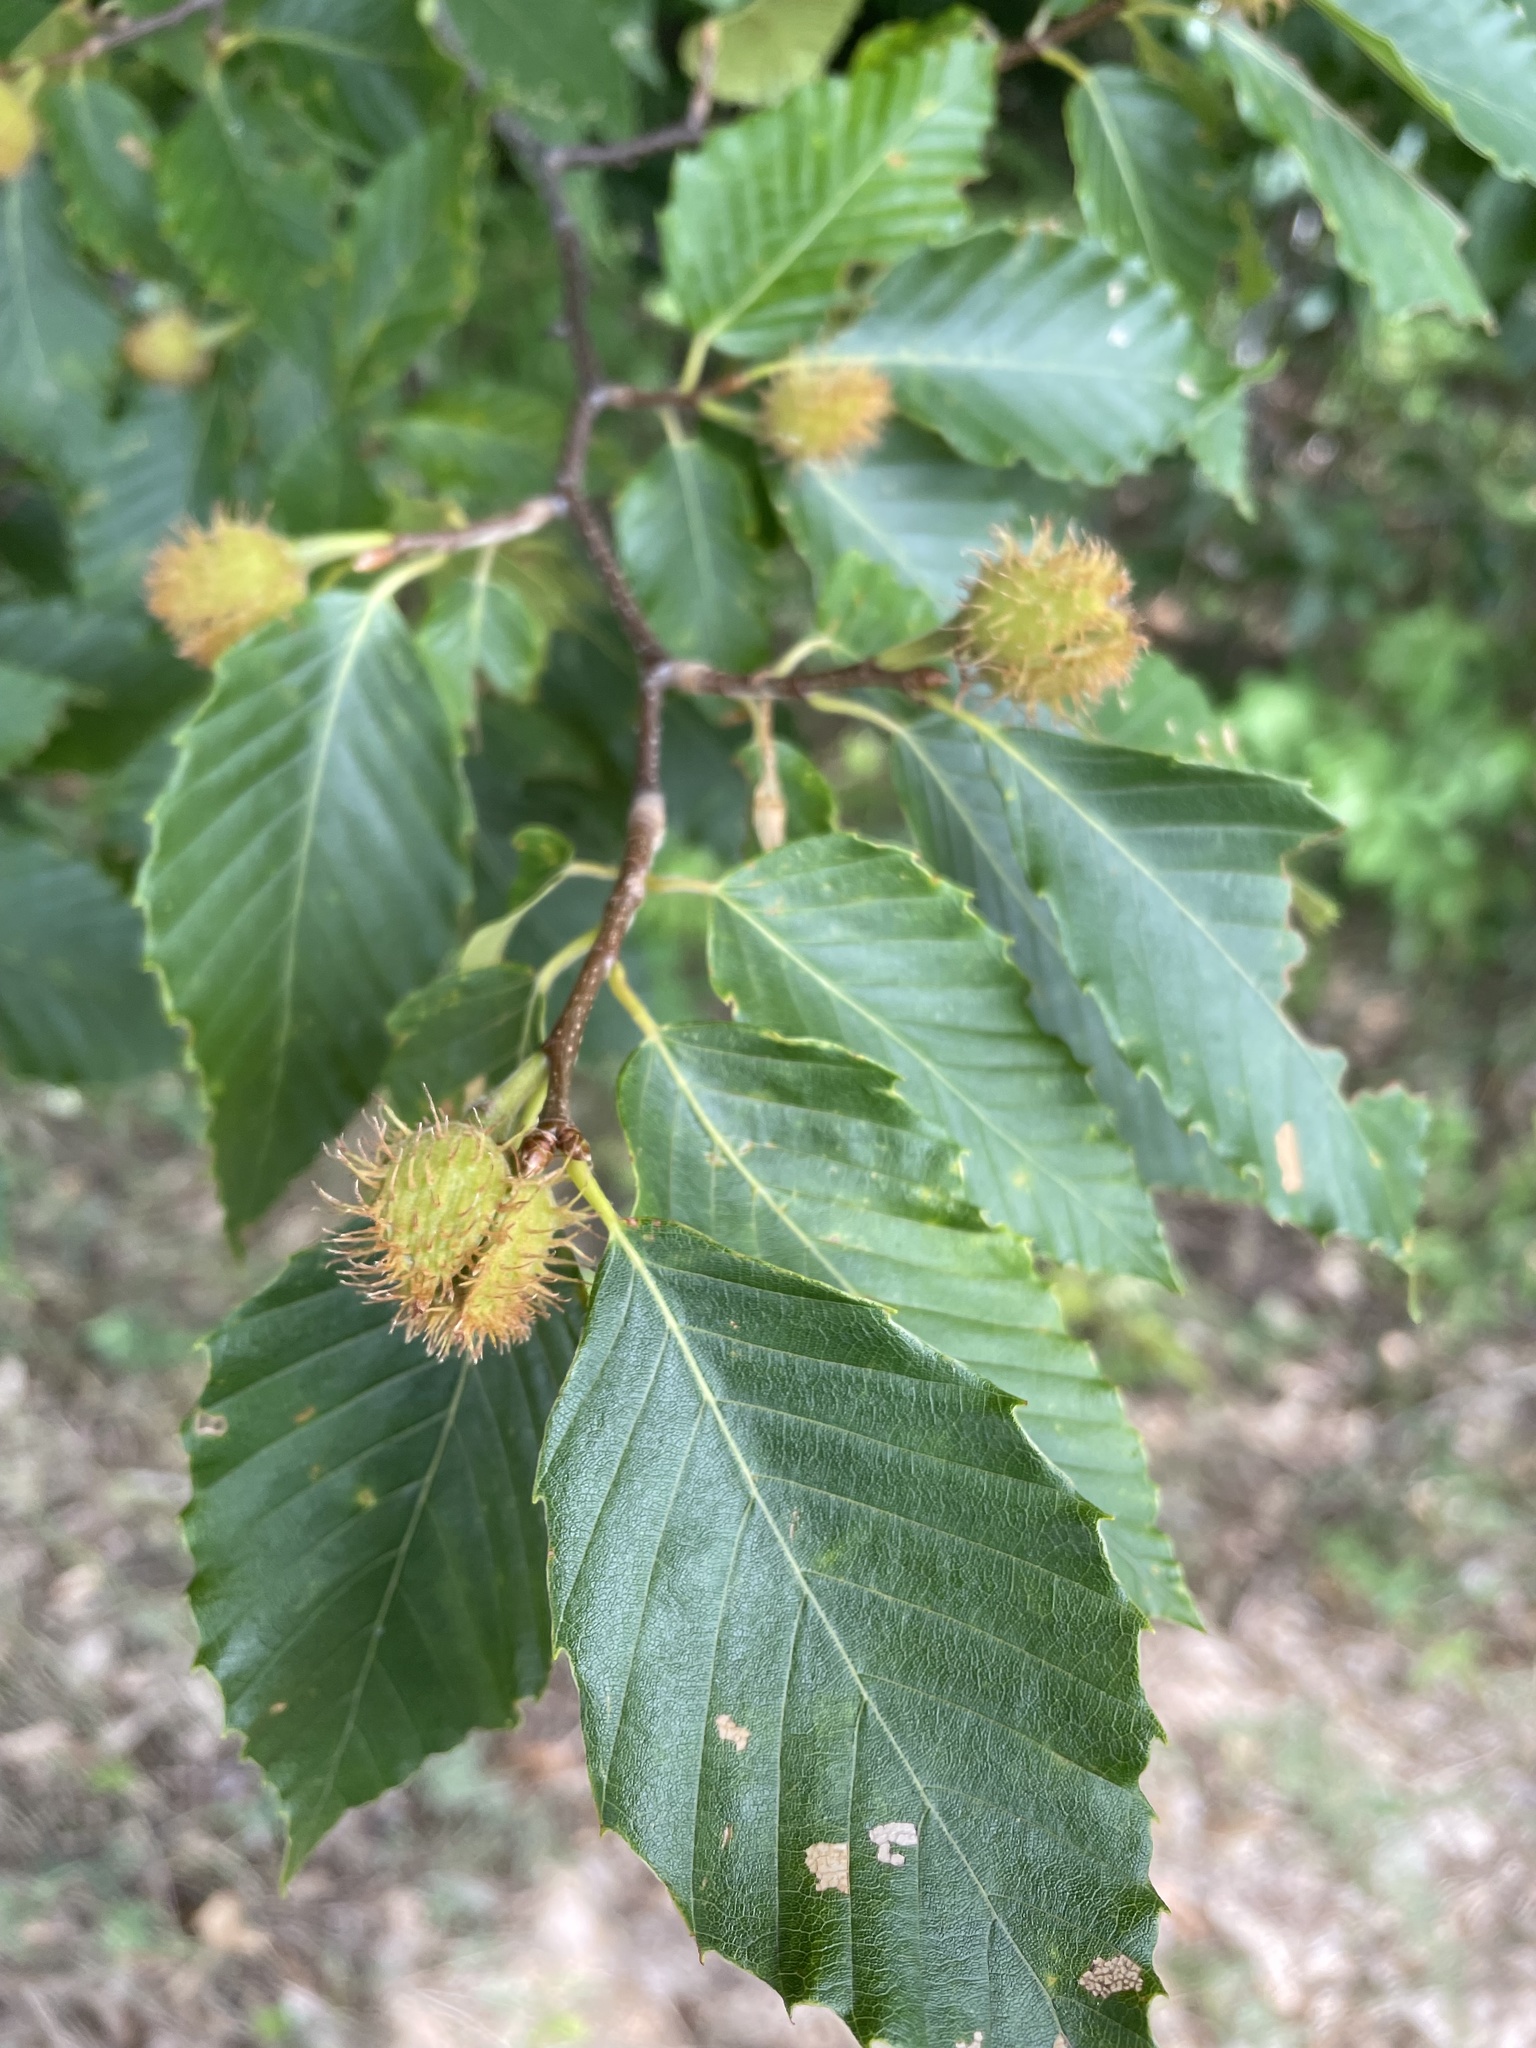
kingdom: Plantae
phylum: Tracheophyta
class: Magnoliopsida
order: Fagales
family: Fagaceae
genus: Fagus
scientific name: Fagus grandifolia
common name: American beech
